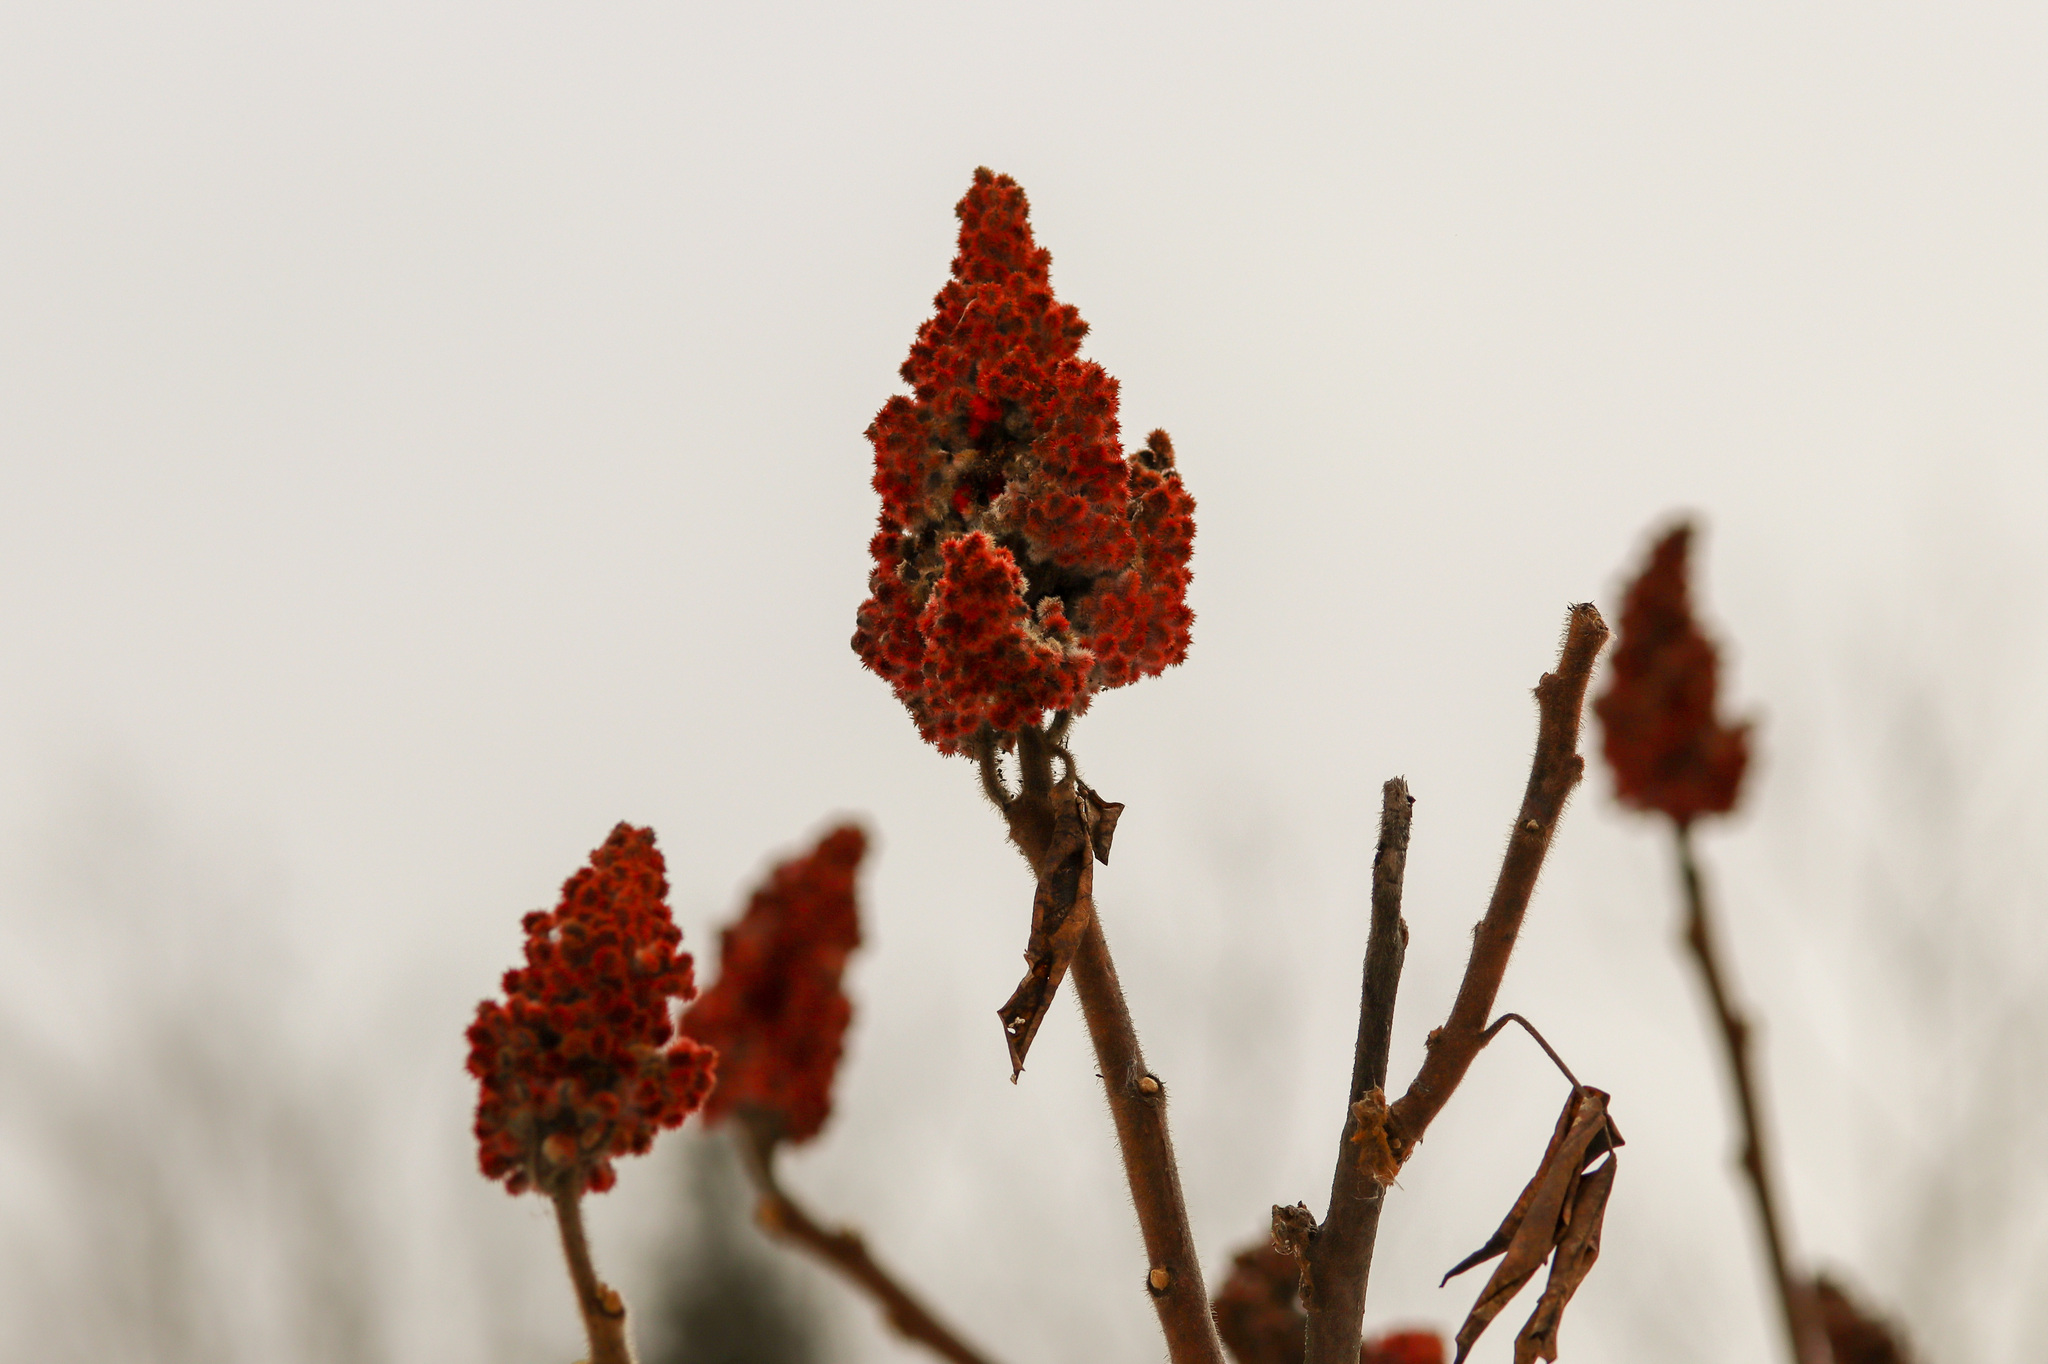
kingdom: Plantae
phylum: Tracheophyta
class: Magnoliopsida
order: Sapindales
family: Anacardiaceae
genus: Rhus
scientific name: Rhus typhina
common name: Staghorn sumac
